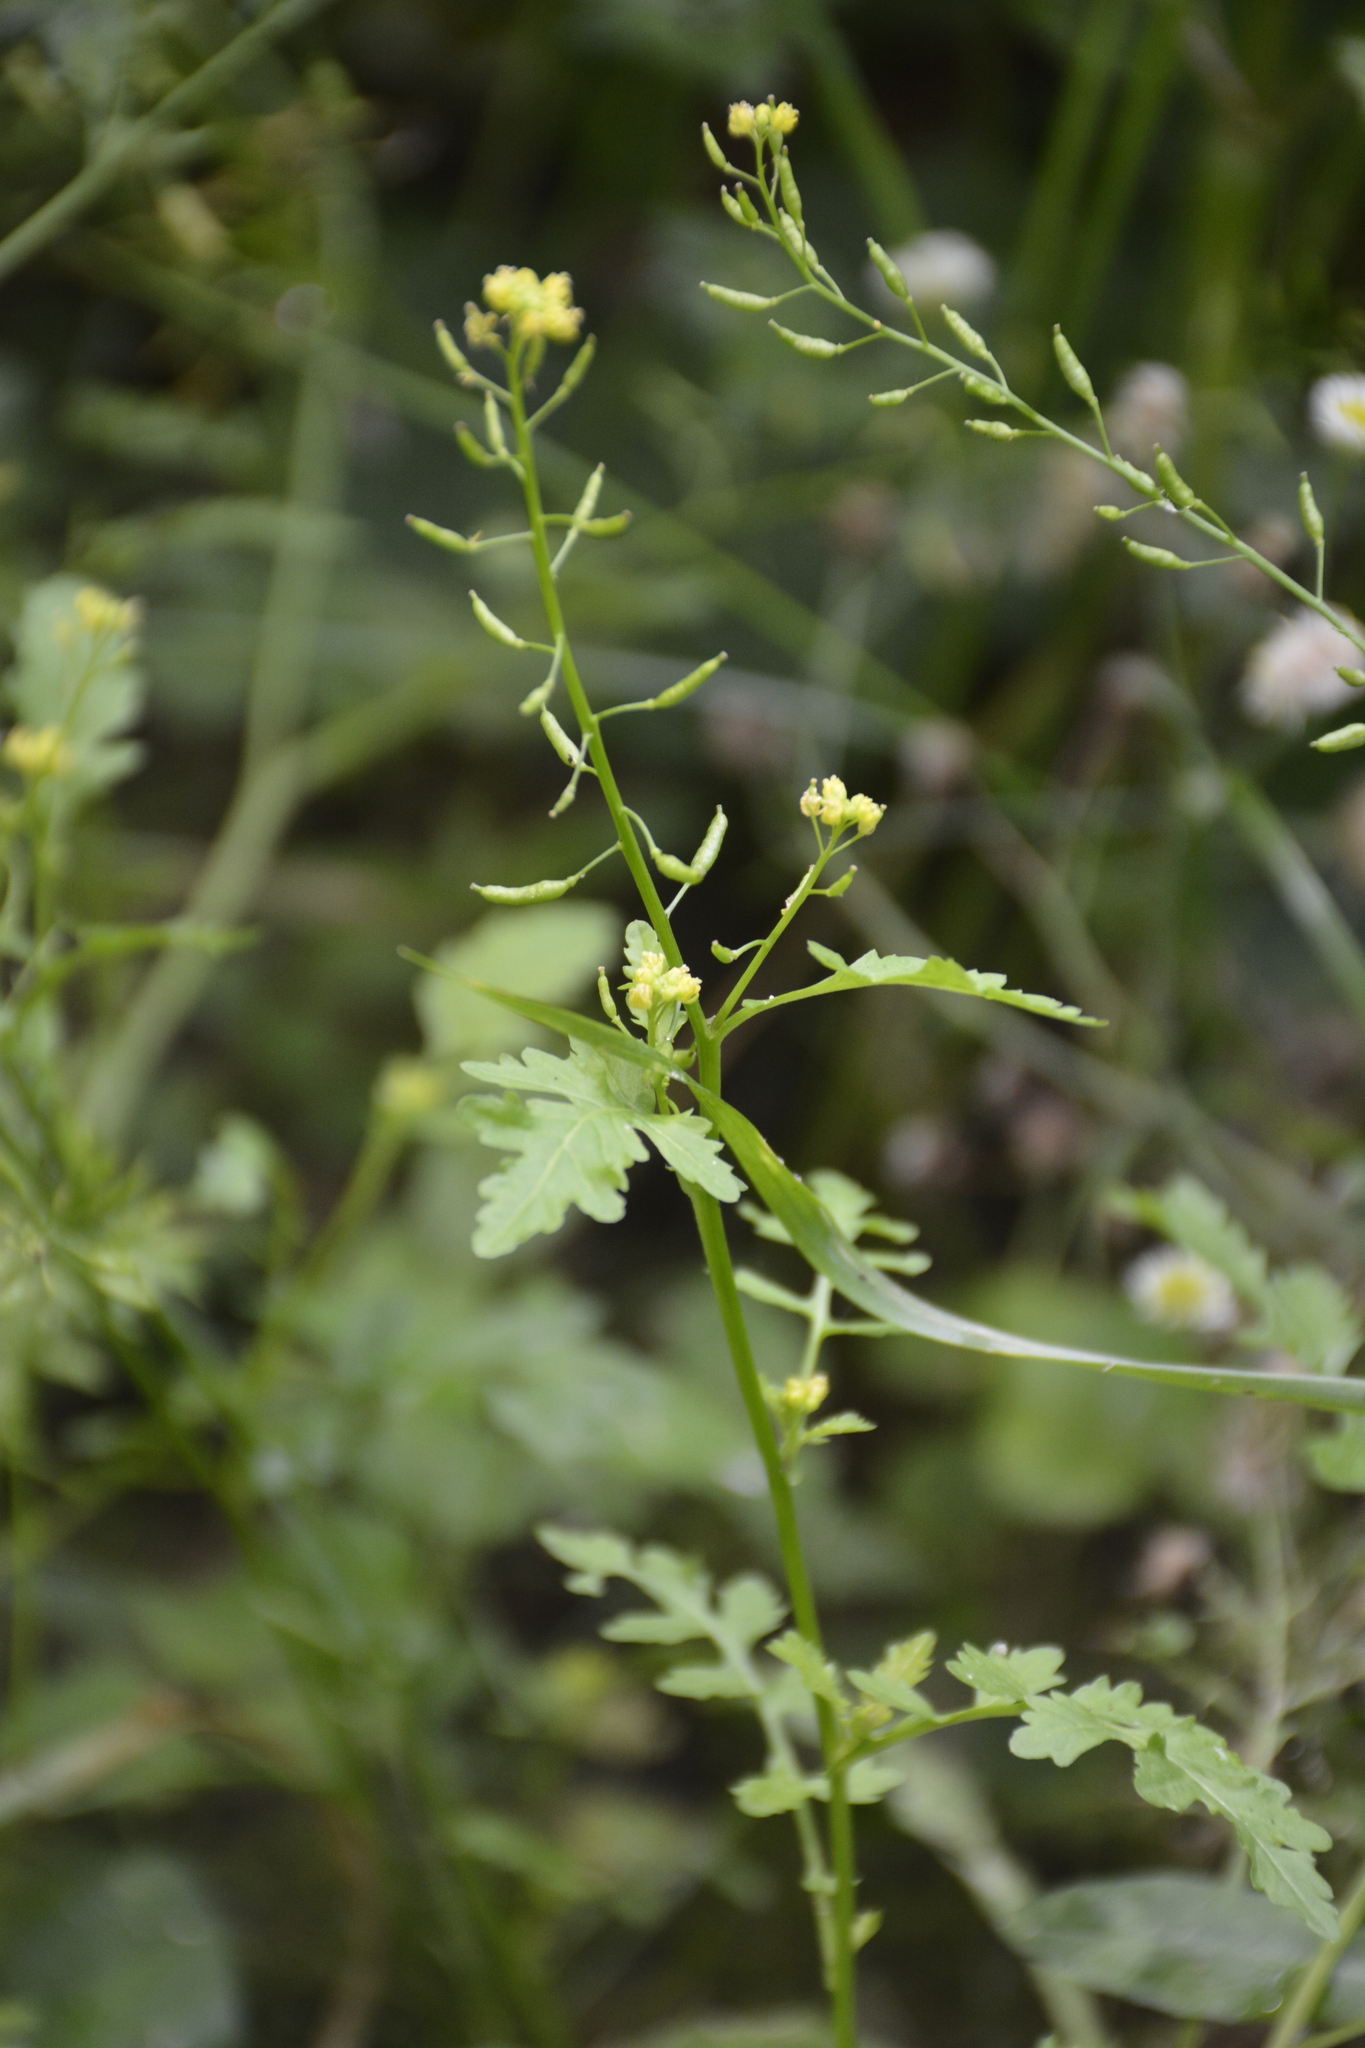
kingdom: Plantae
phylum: Tracheophyta
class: Magnoliopsida
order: Brassicales
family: Brassicaceae
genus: Rorippa
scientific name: Rorippa palustris
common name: Marsh yellow-cress
